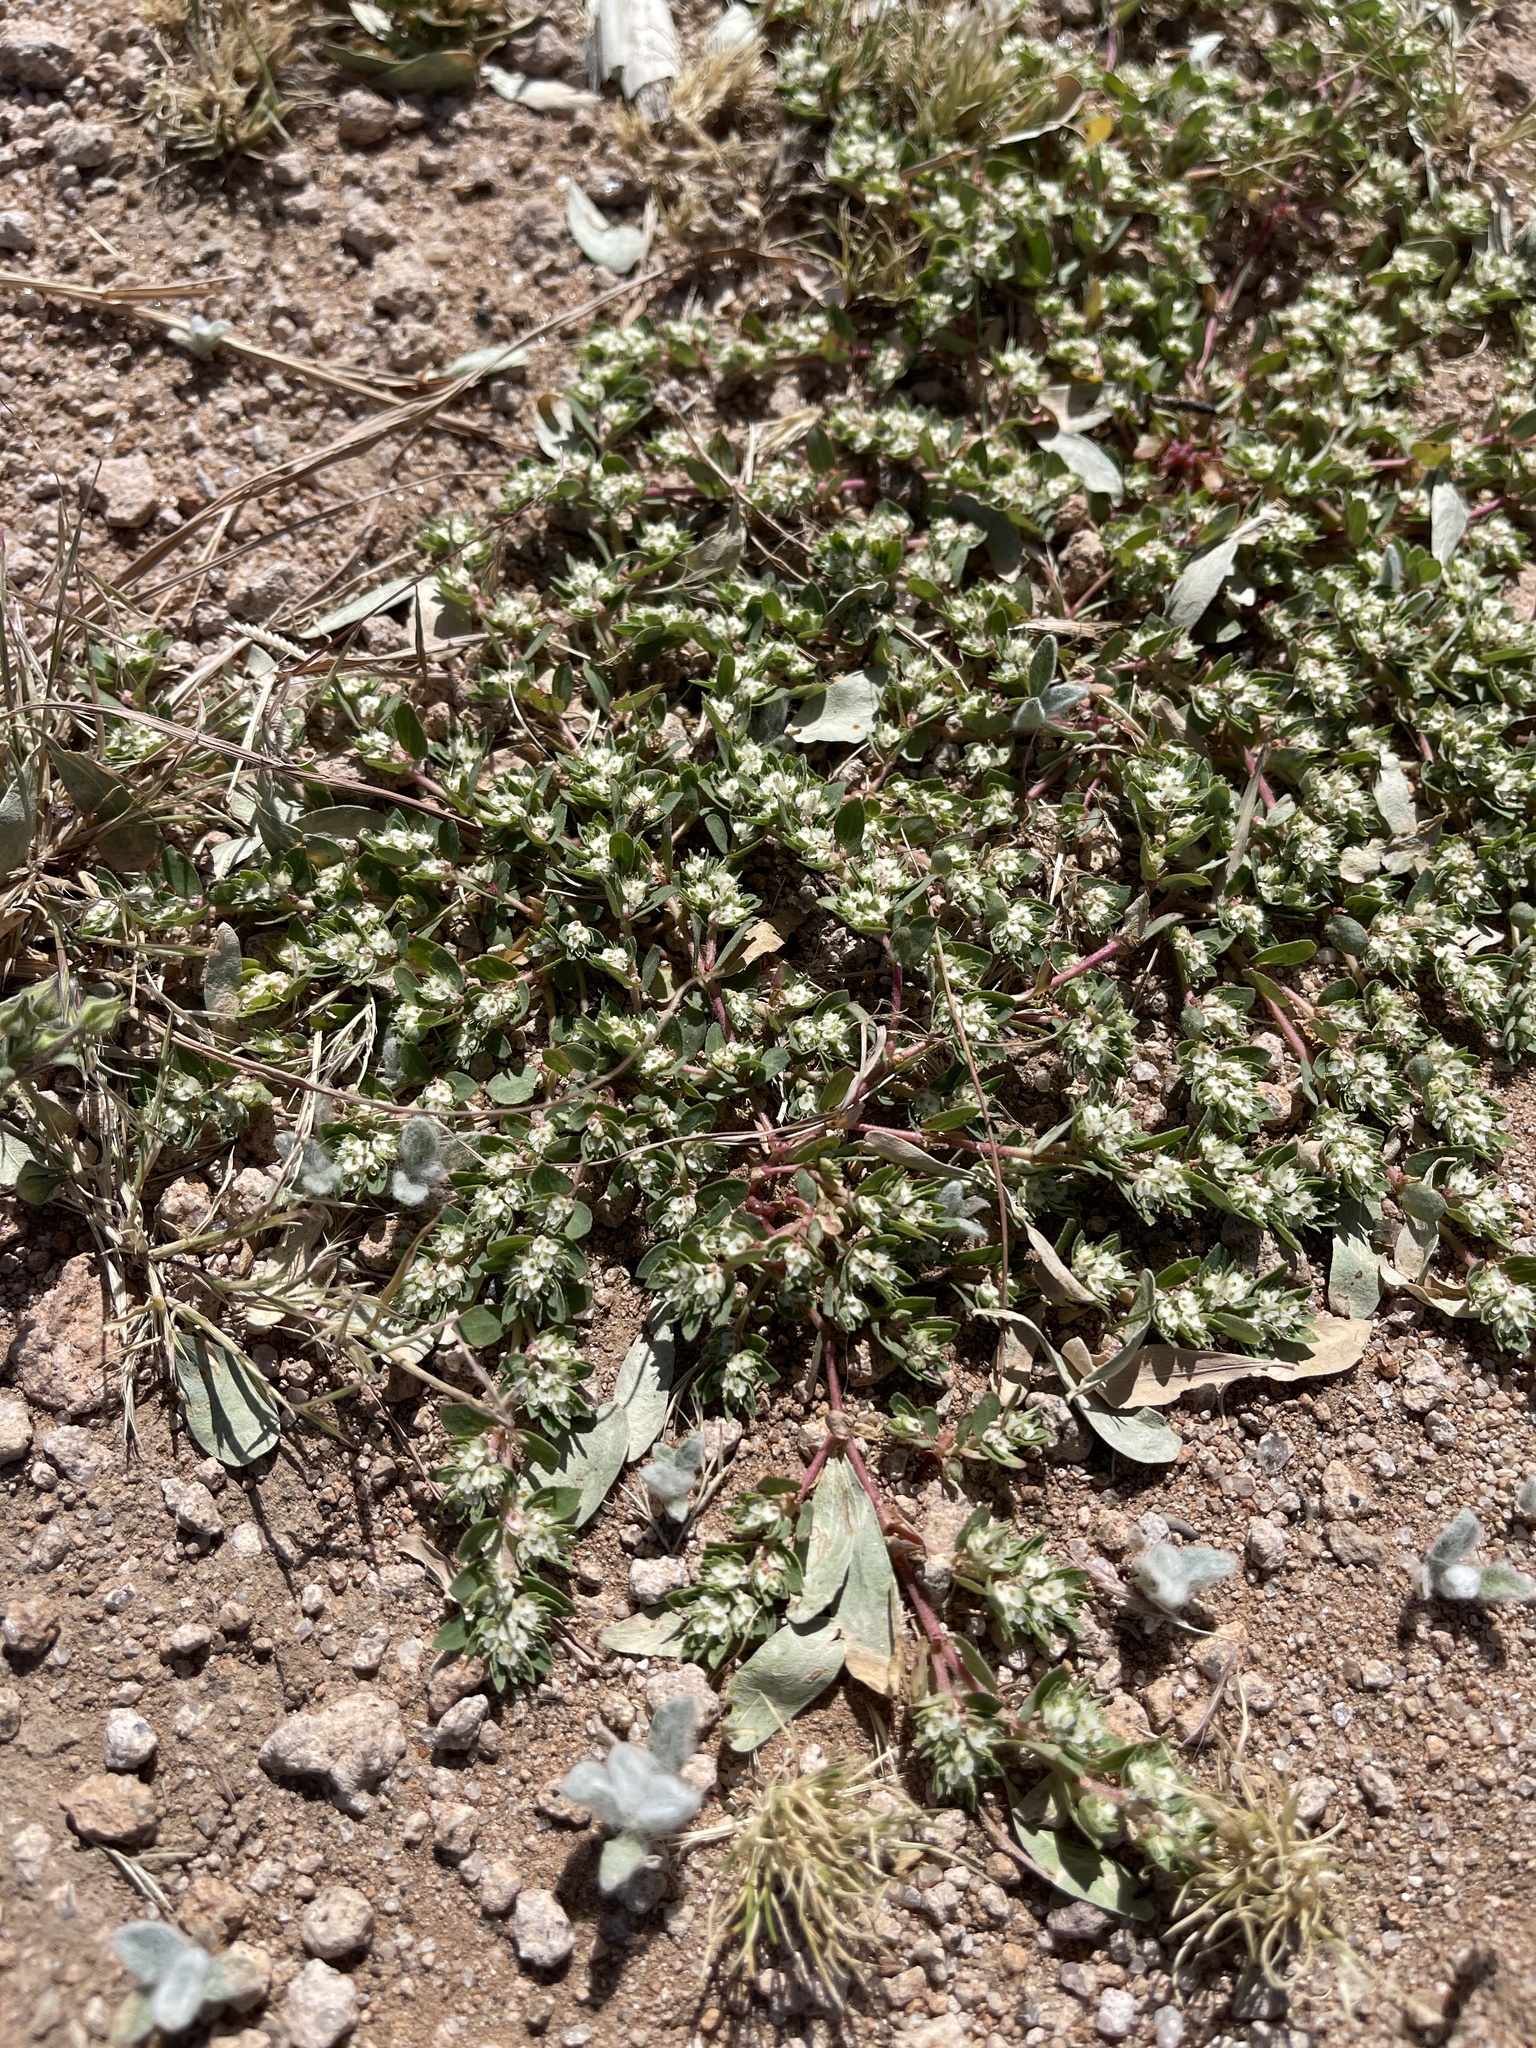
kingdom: Plantae
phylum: Tracheophyta
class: Magnoliopsida
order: Caryophyllales
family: Amaranthaceae
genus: Guilleminea
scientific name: Guilleminea densa
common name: Small matweed
